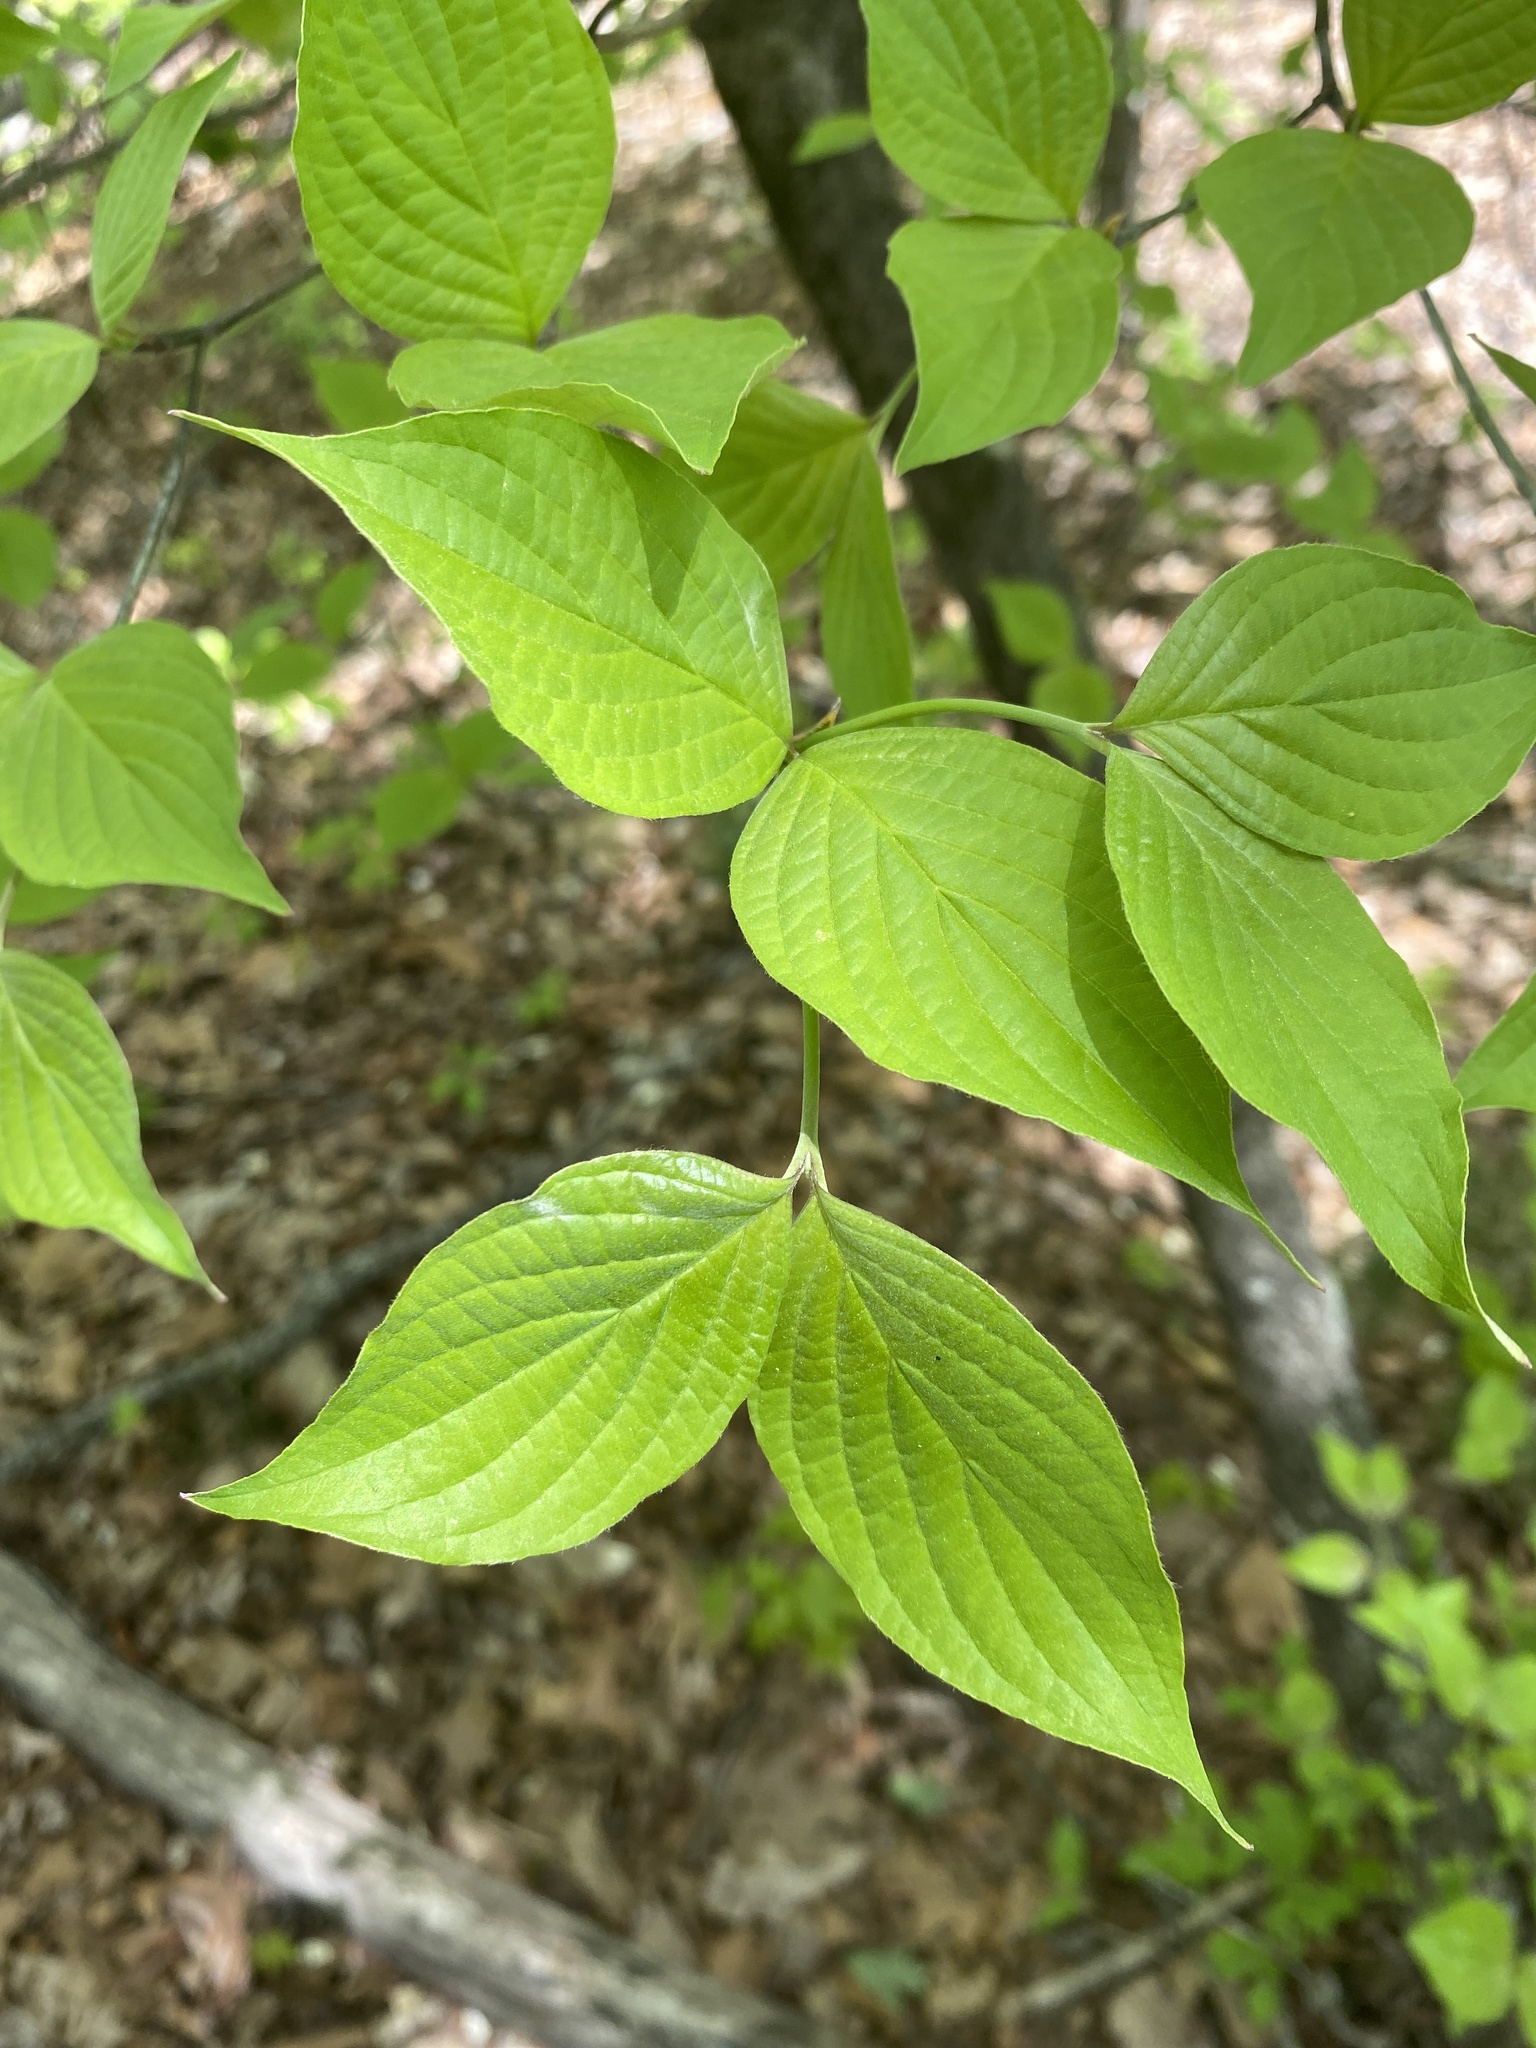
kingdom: Plantae
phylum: Tracheophyta
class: Magnoliopsida
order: Cornales
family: Cornaceae
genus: Cornus
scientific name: Cornus florida
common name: Flowering dogwood
